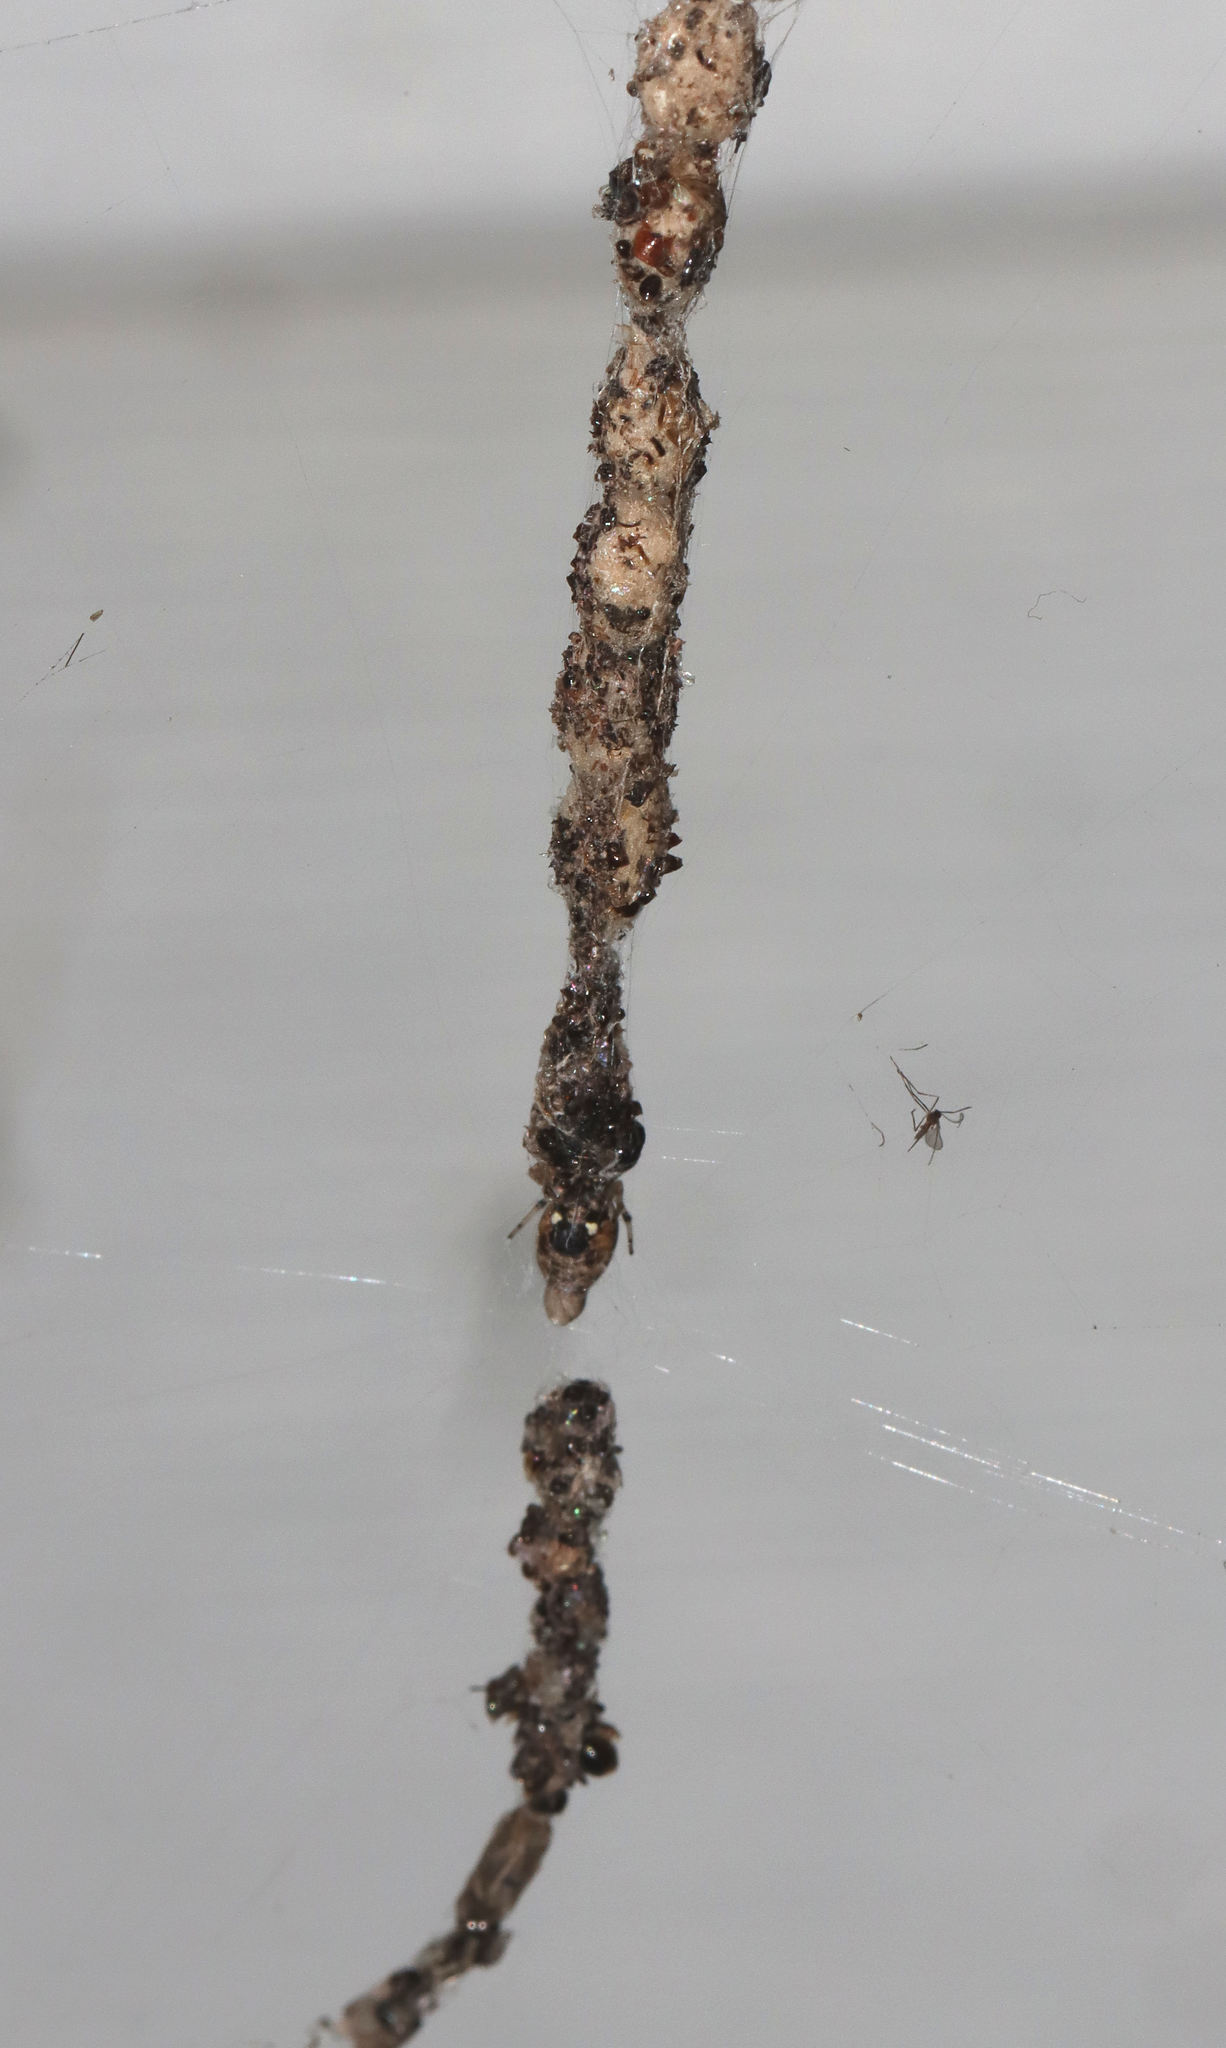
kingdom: Animalia
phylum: Arthropoda
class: Arachnida
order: Araneae
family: Araneidae
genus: Cyclosa
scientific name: Cyclosa turbinata
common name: Orb weavers
